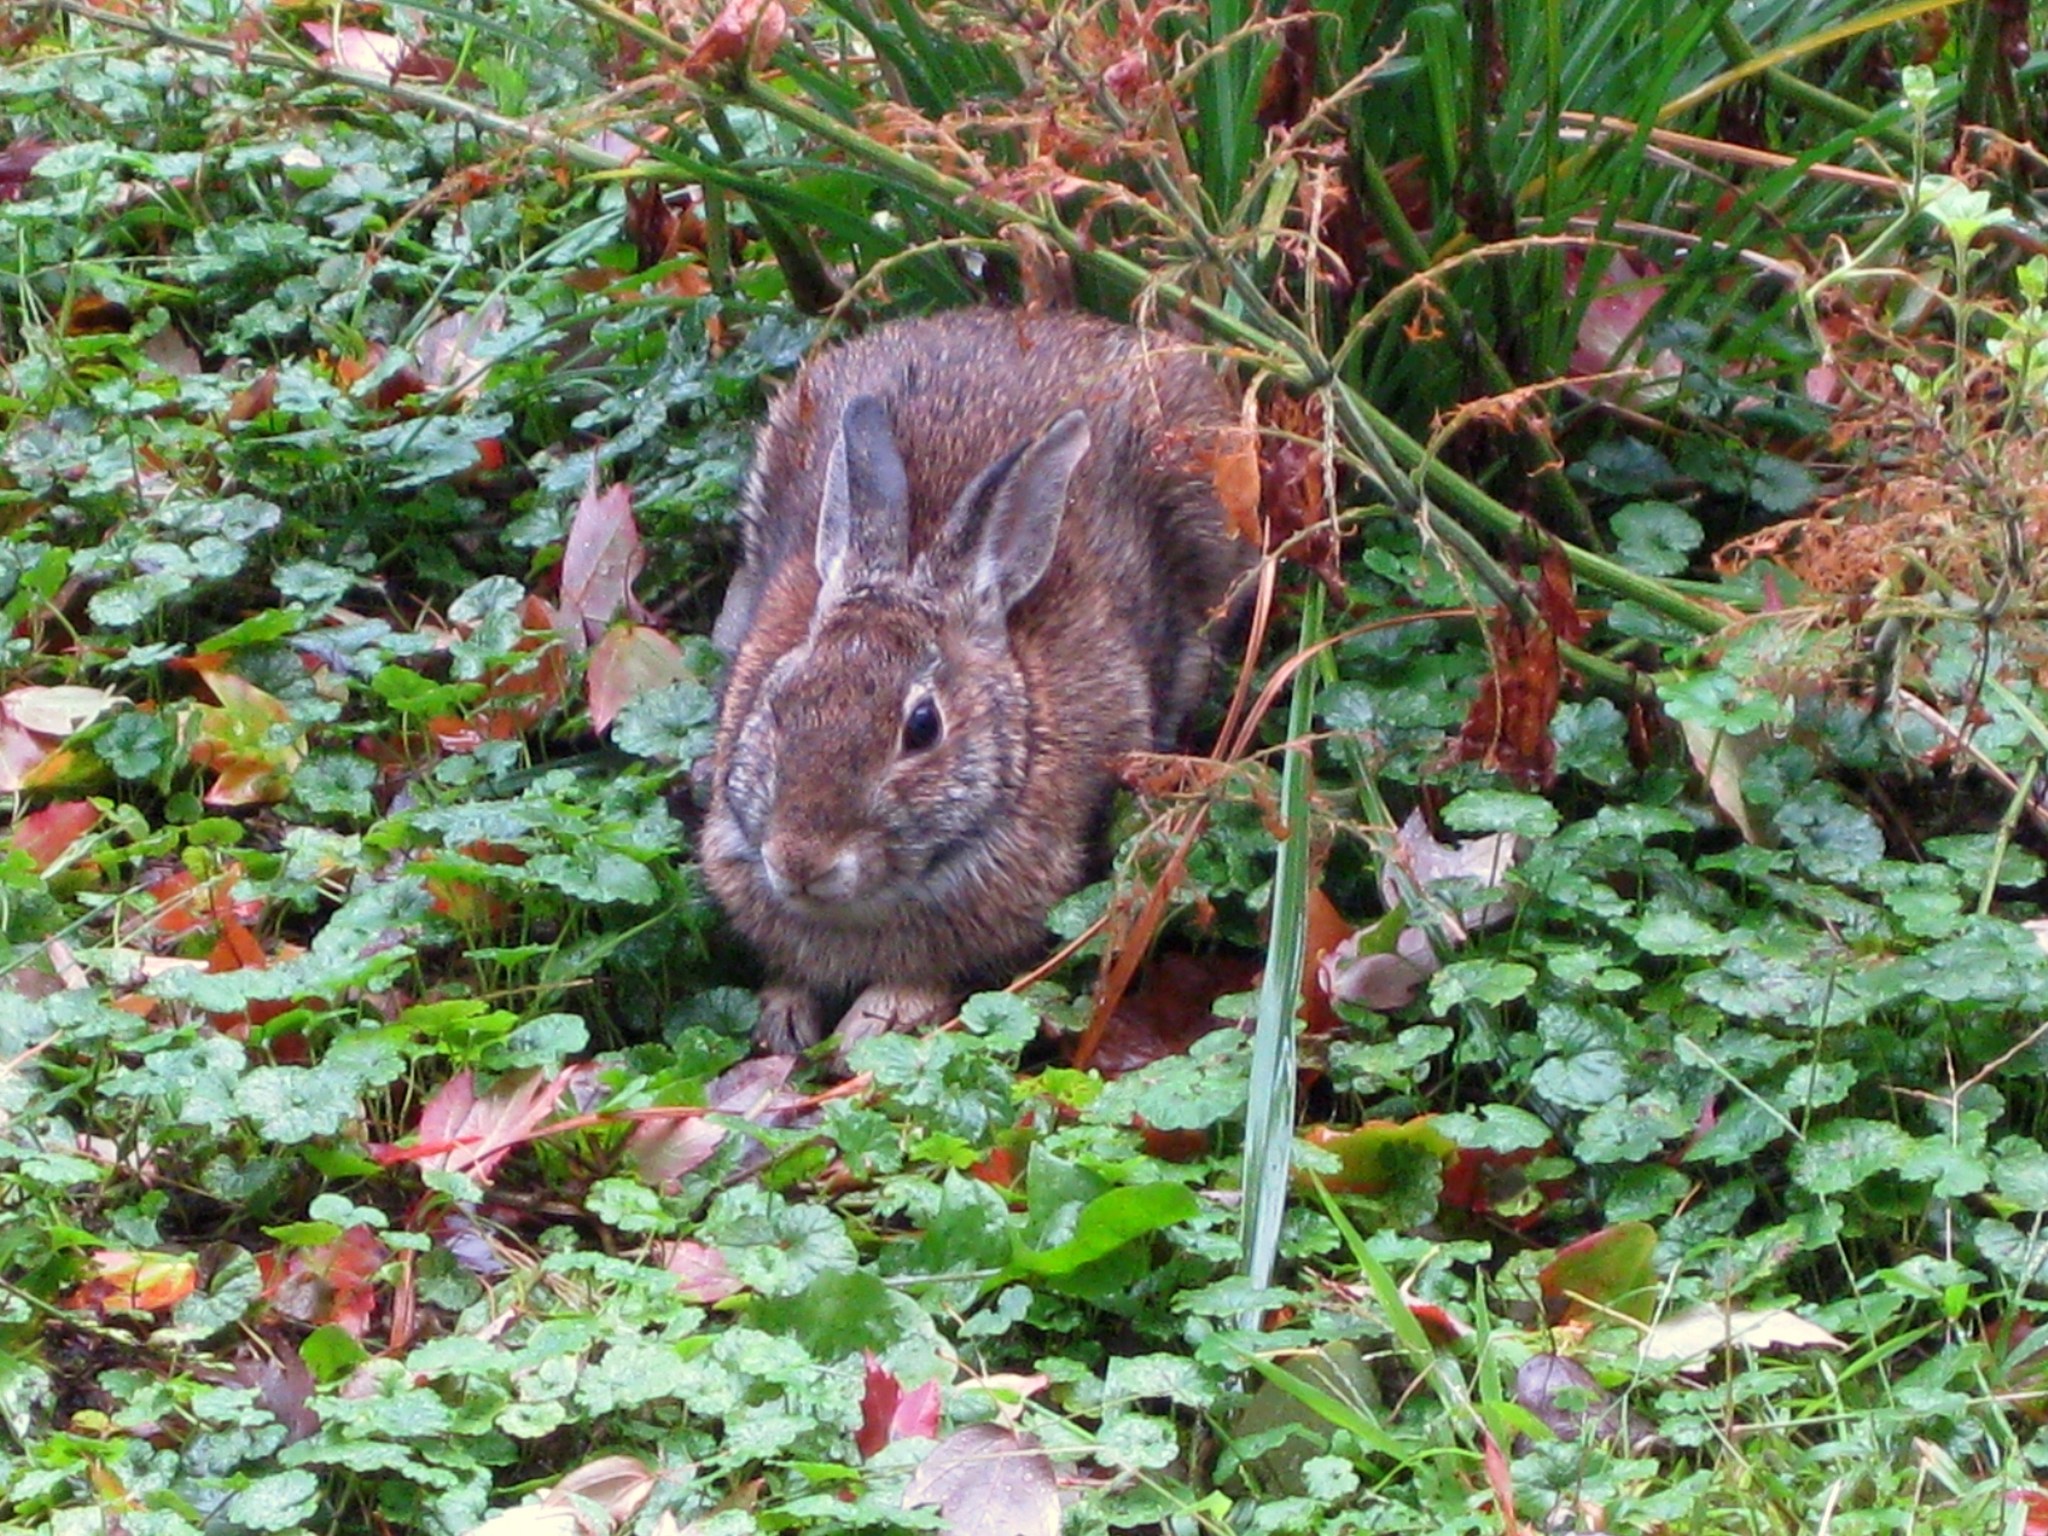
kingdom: Animalia
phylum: Chordata
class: Mammalia
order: Lagomorpha
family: Leporidae
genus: Sylvilagus
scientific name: Sylvilagus floridanus
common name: Eastern cottontail
